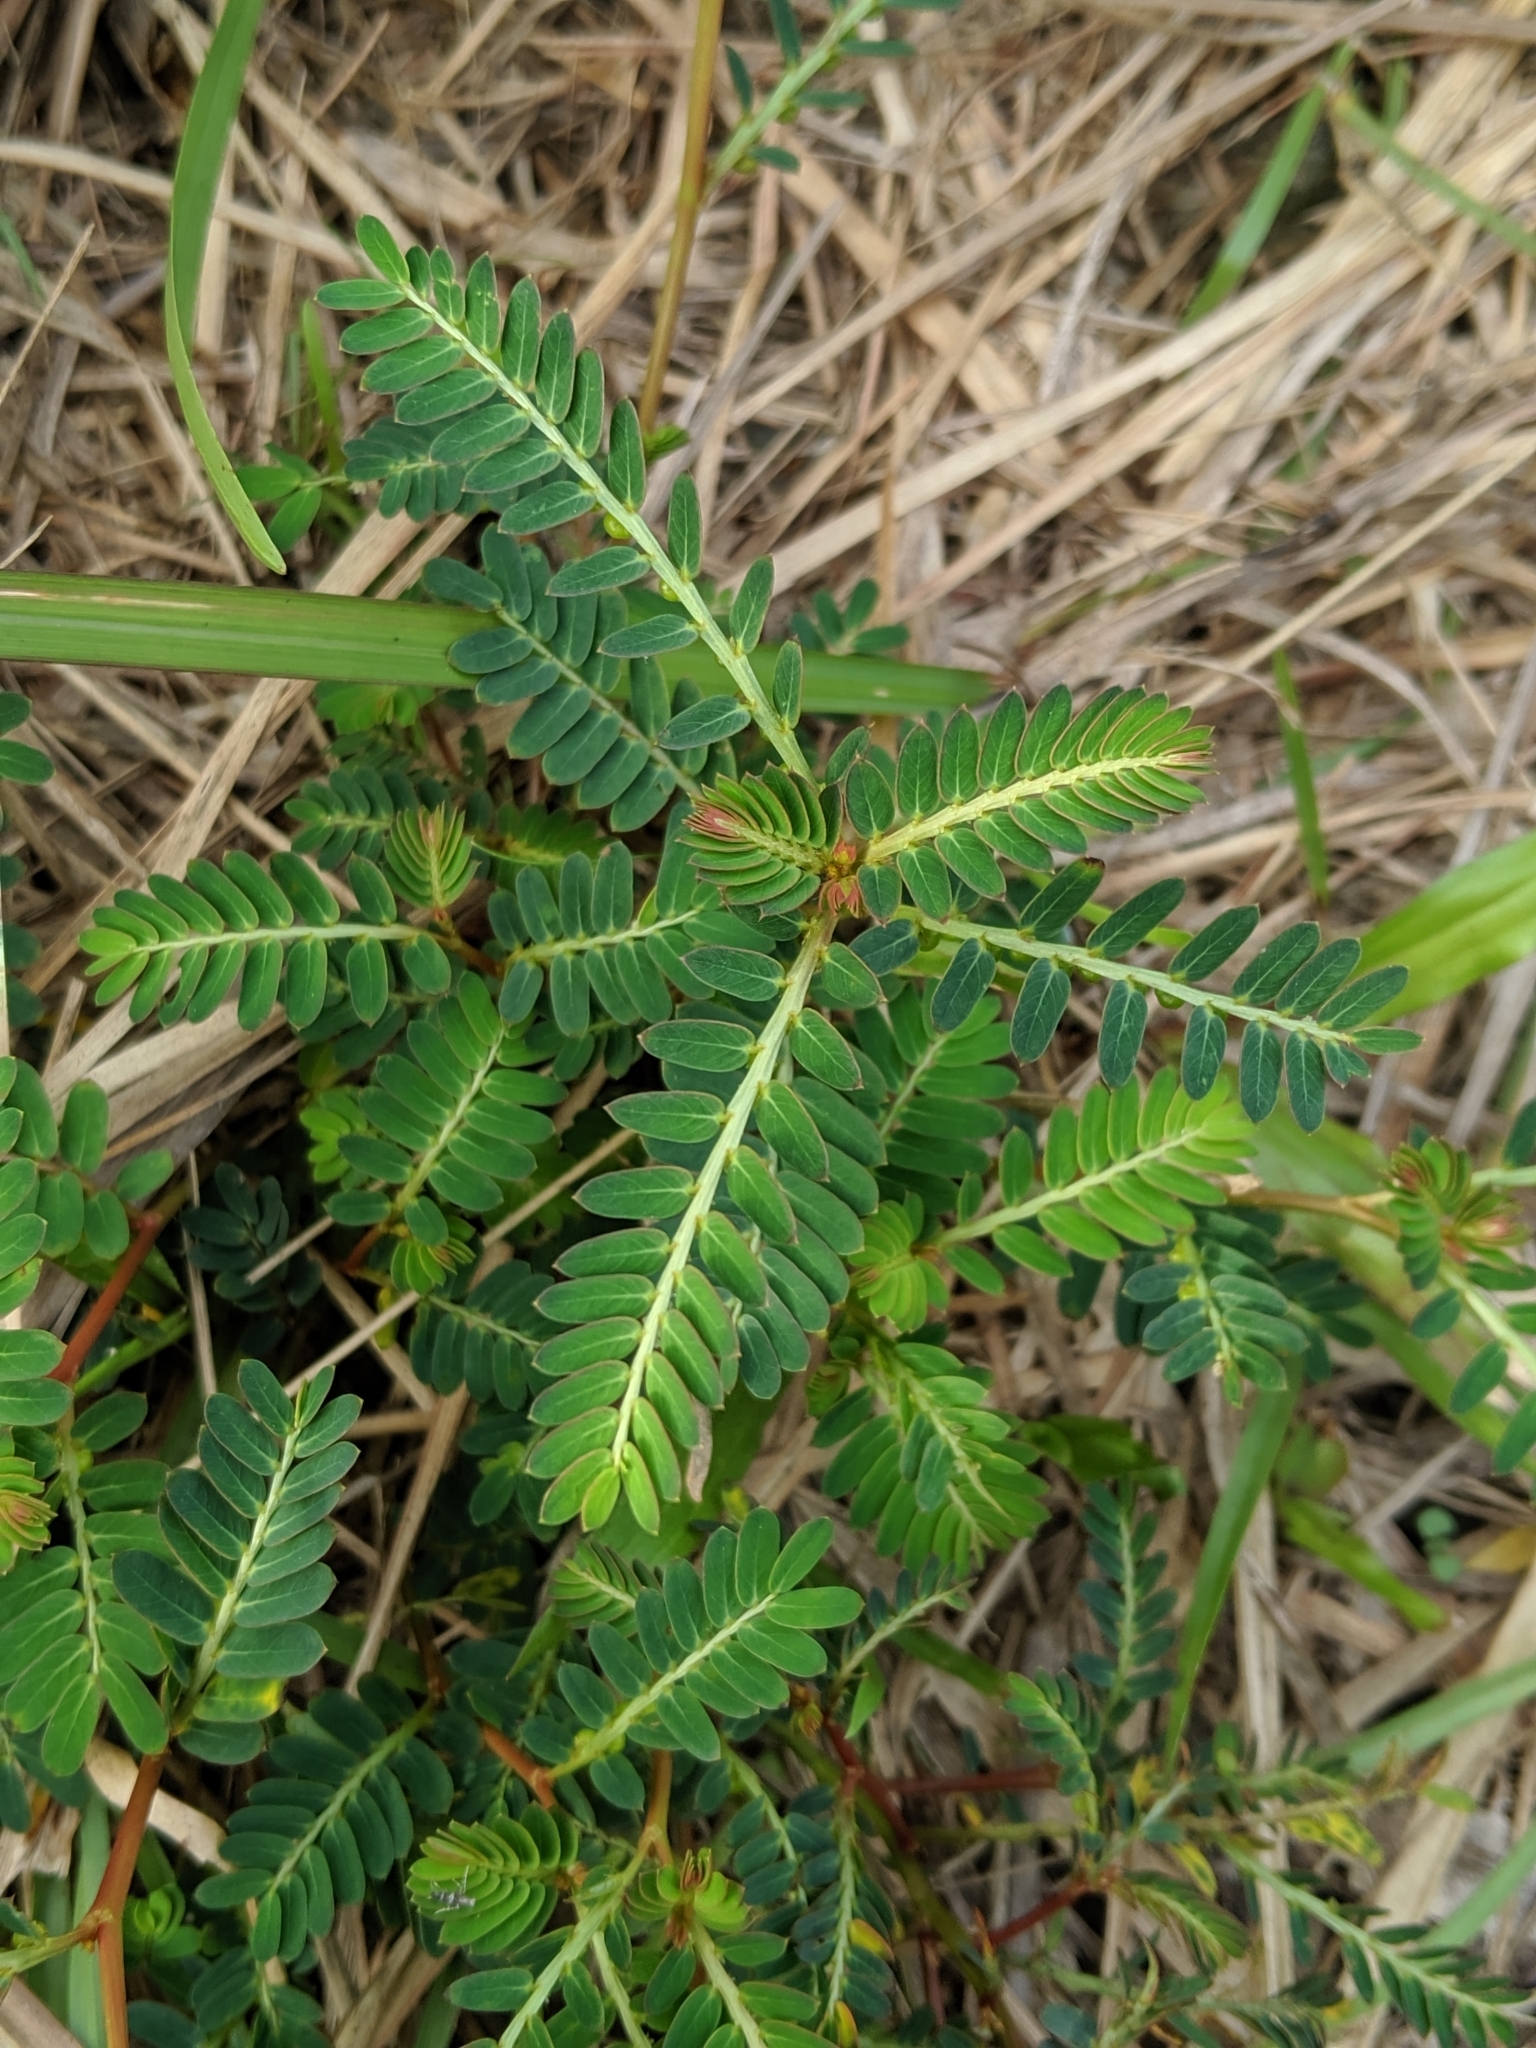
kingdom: Plantae
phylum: Tracheophyta
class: Magnoliopsida
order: Malpighiales
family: Phyllanthaceae
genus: Phyllanthus
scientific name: Phyllanthus urinaria
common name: Chamber bitter
